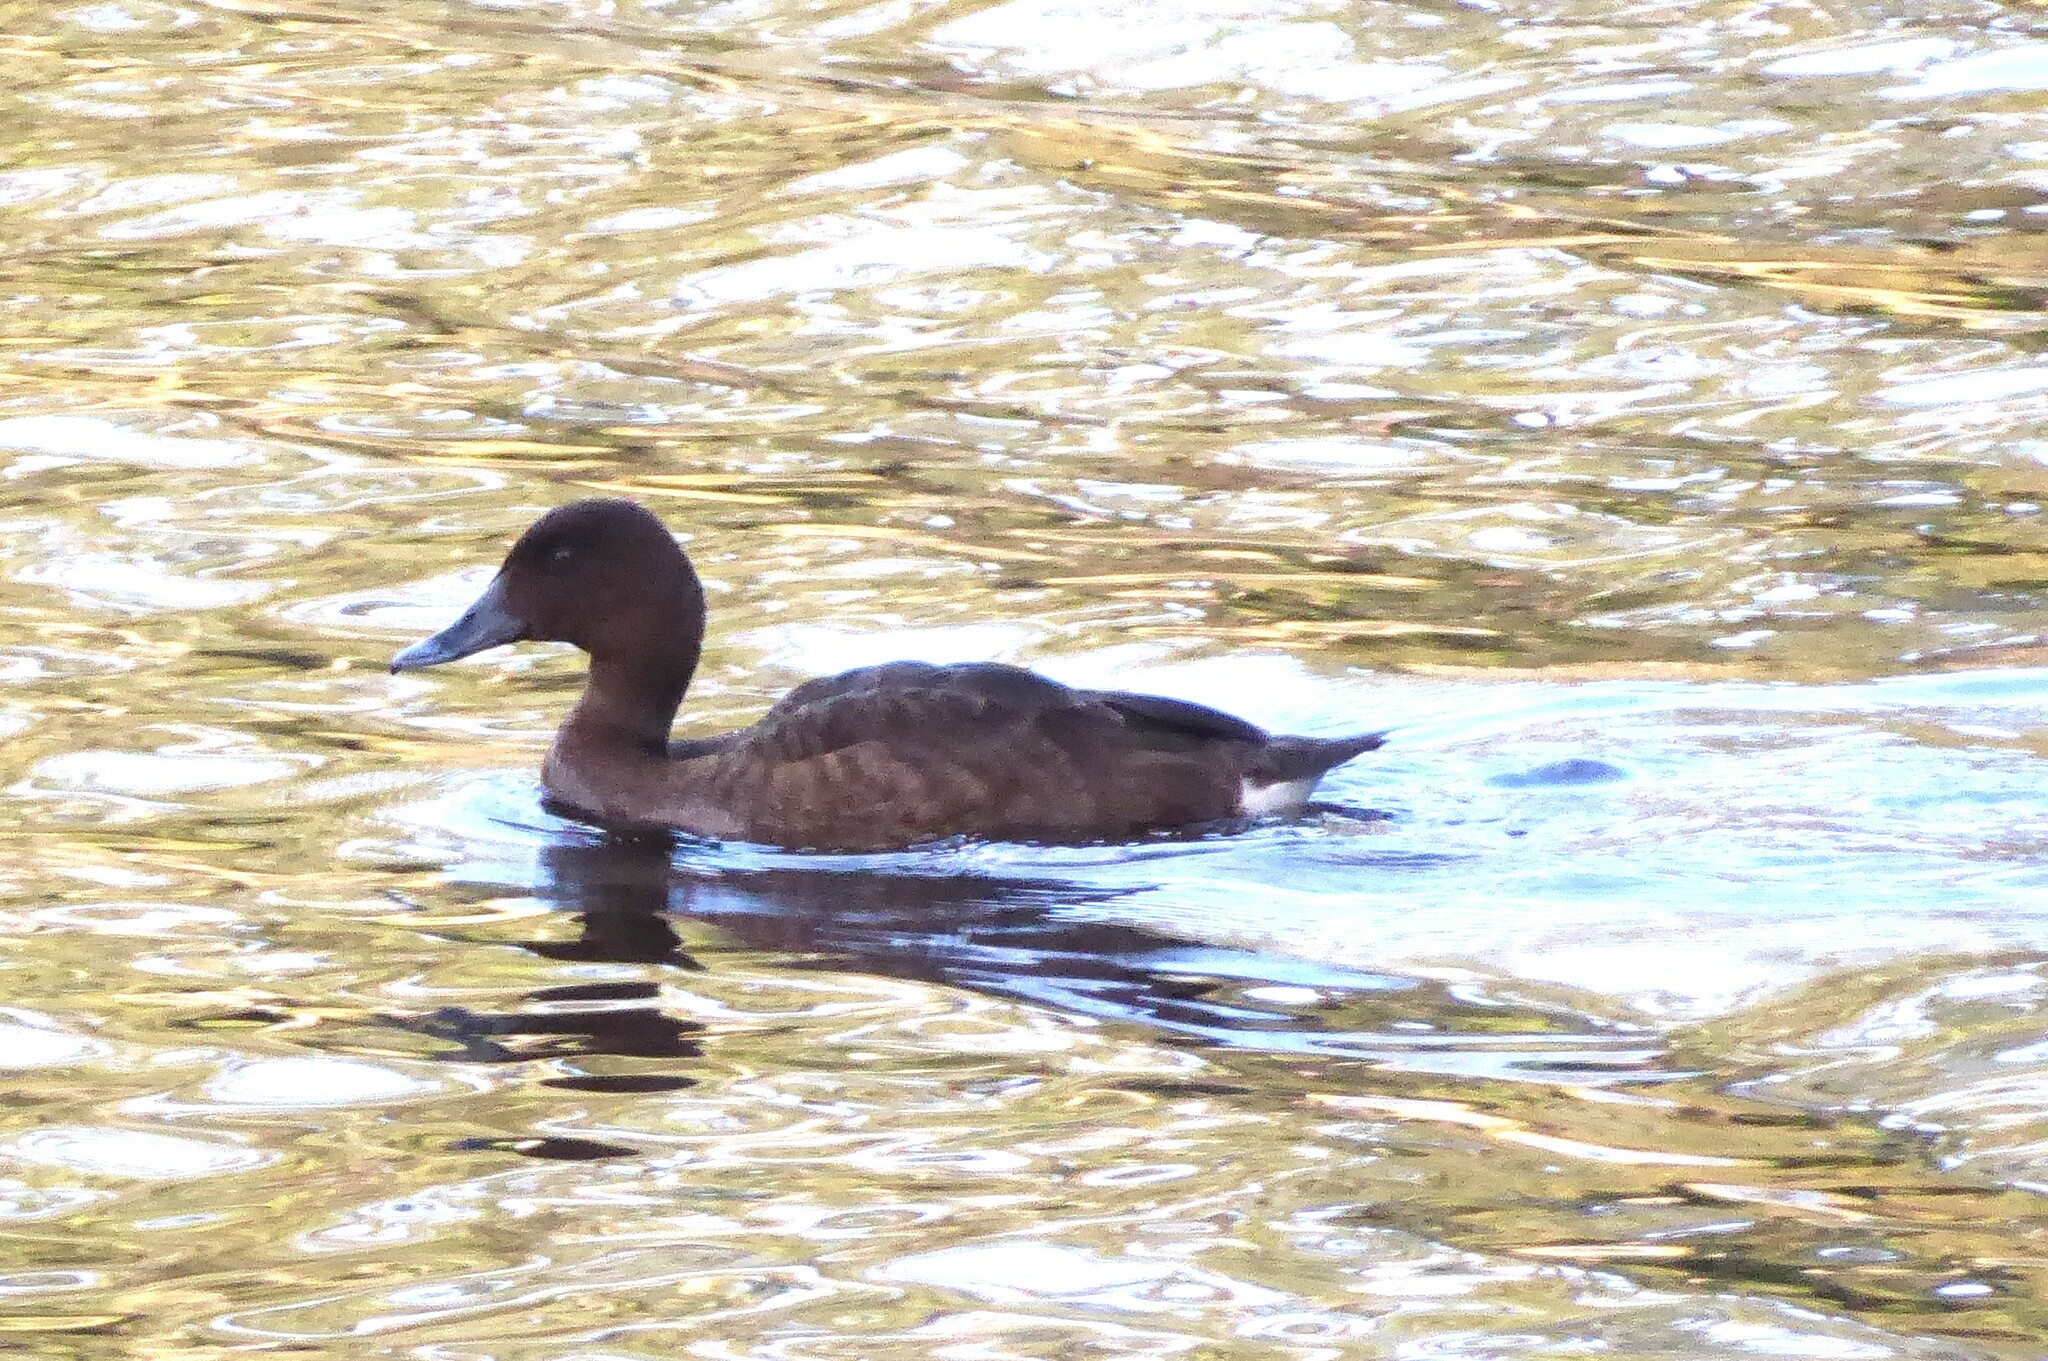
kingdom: Animalia
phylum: Chordata
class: Aves
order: Anseriformes
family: Anatidae
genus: Aythya
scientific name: Aythya australis
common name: Hardhead
